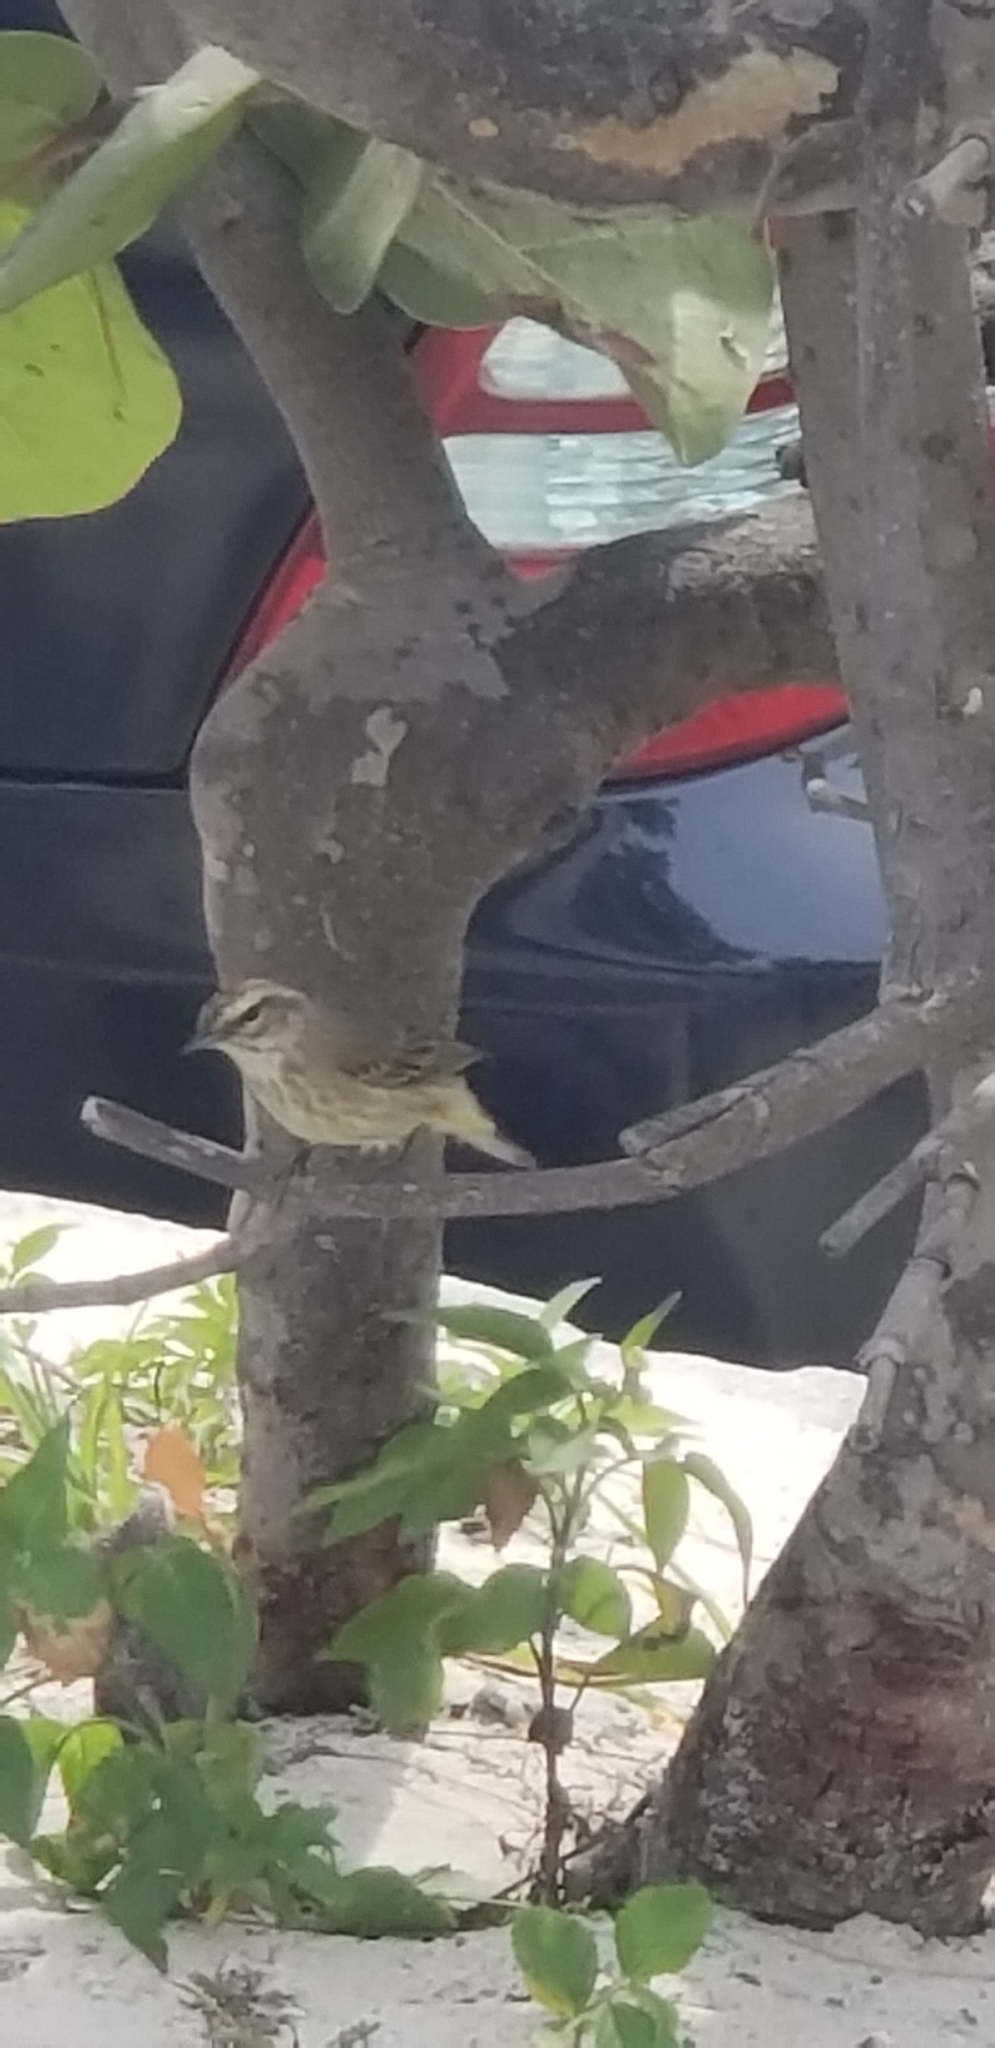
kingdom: Animalia
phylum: Chordata
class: Aves
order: Passeriformes
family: Parulidae
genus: Setophaga
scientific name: Setophaga palmarum
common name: Palm warbler
